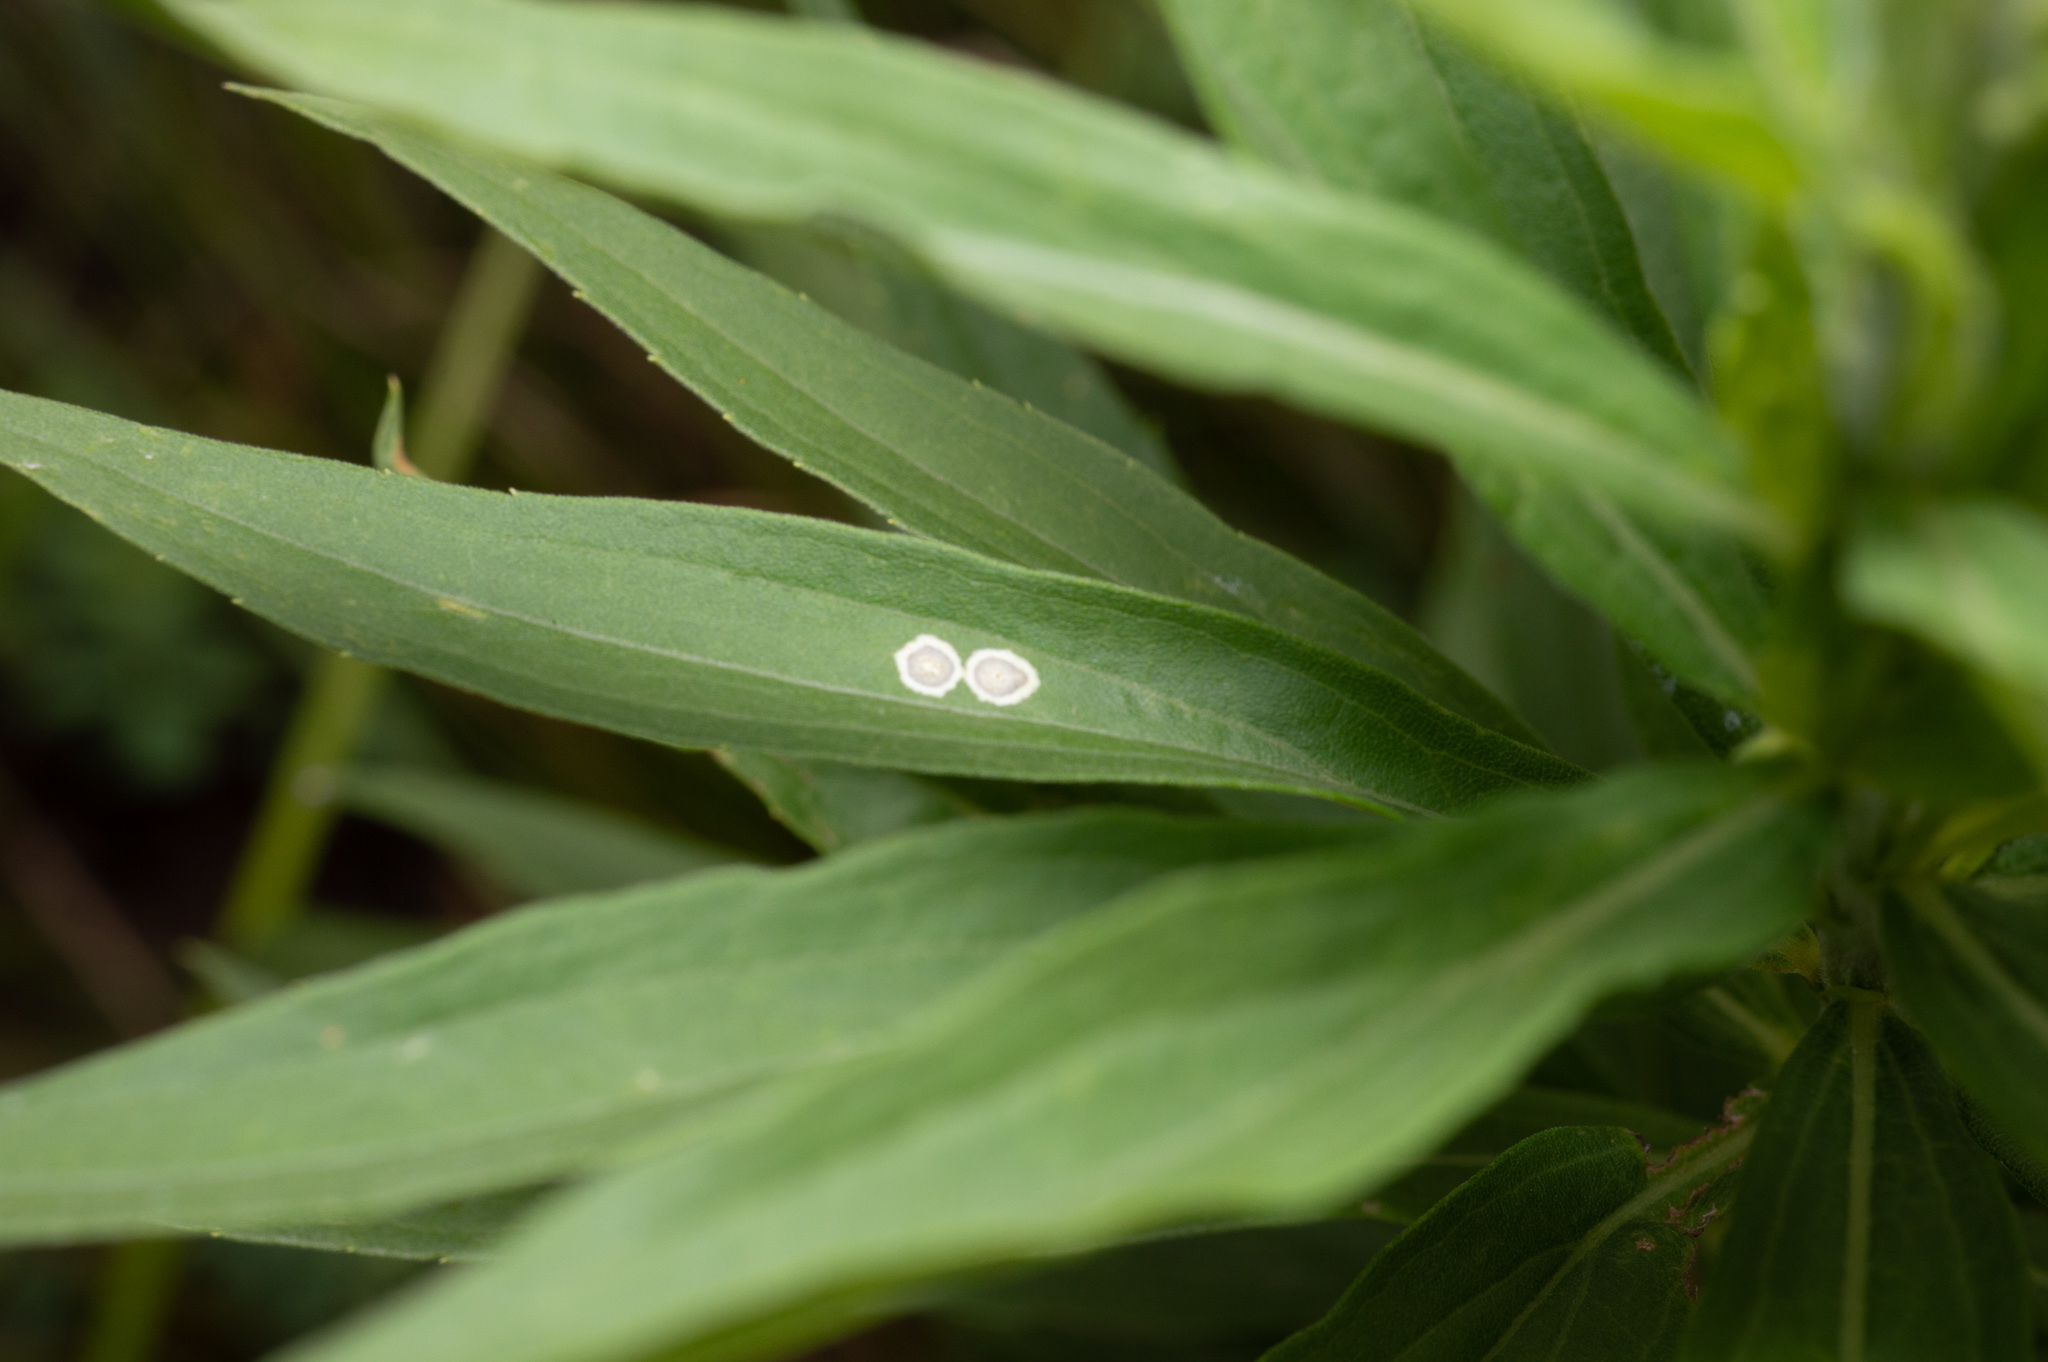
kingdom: Animalia
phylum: Arthropoda
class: Insecta
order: Diptera
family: Cecidomyiidae
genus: Asteromyia
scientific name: Asteromyia carbonifera
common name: Carbonifera goldenrod gall midge
